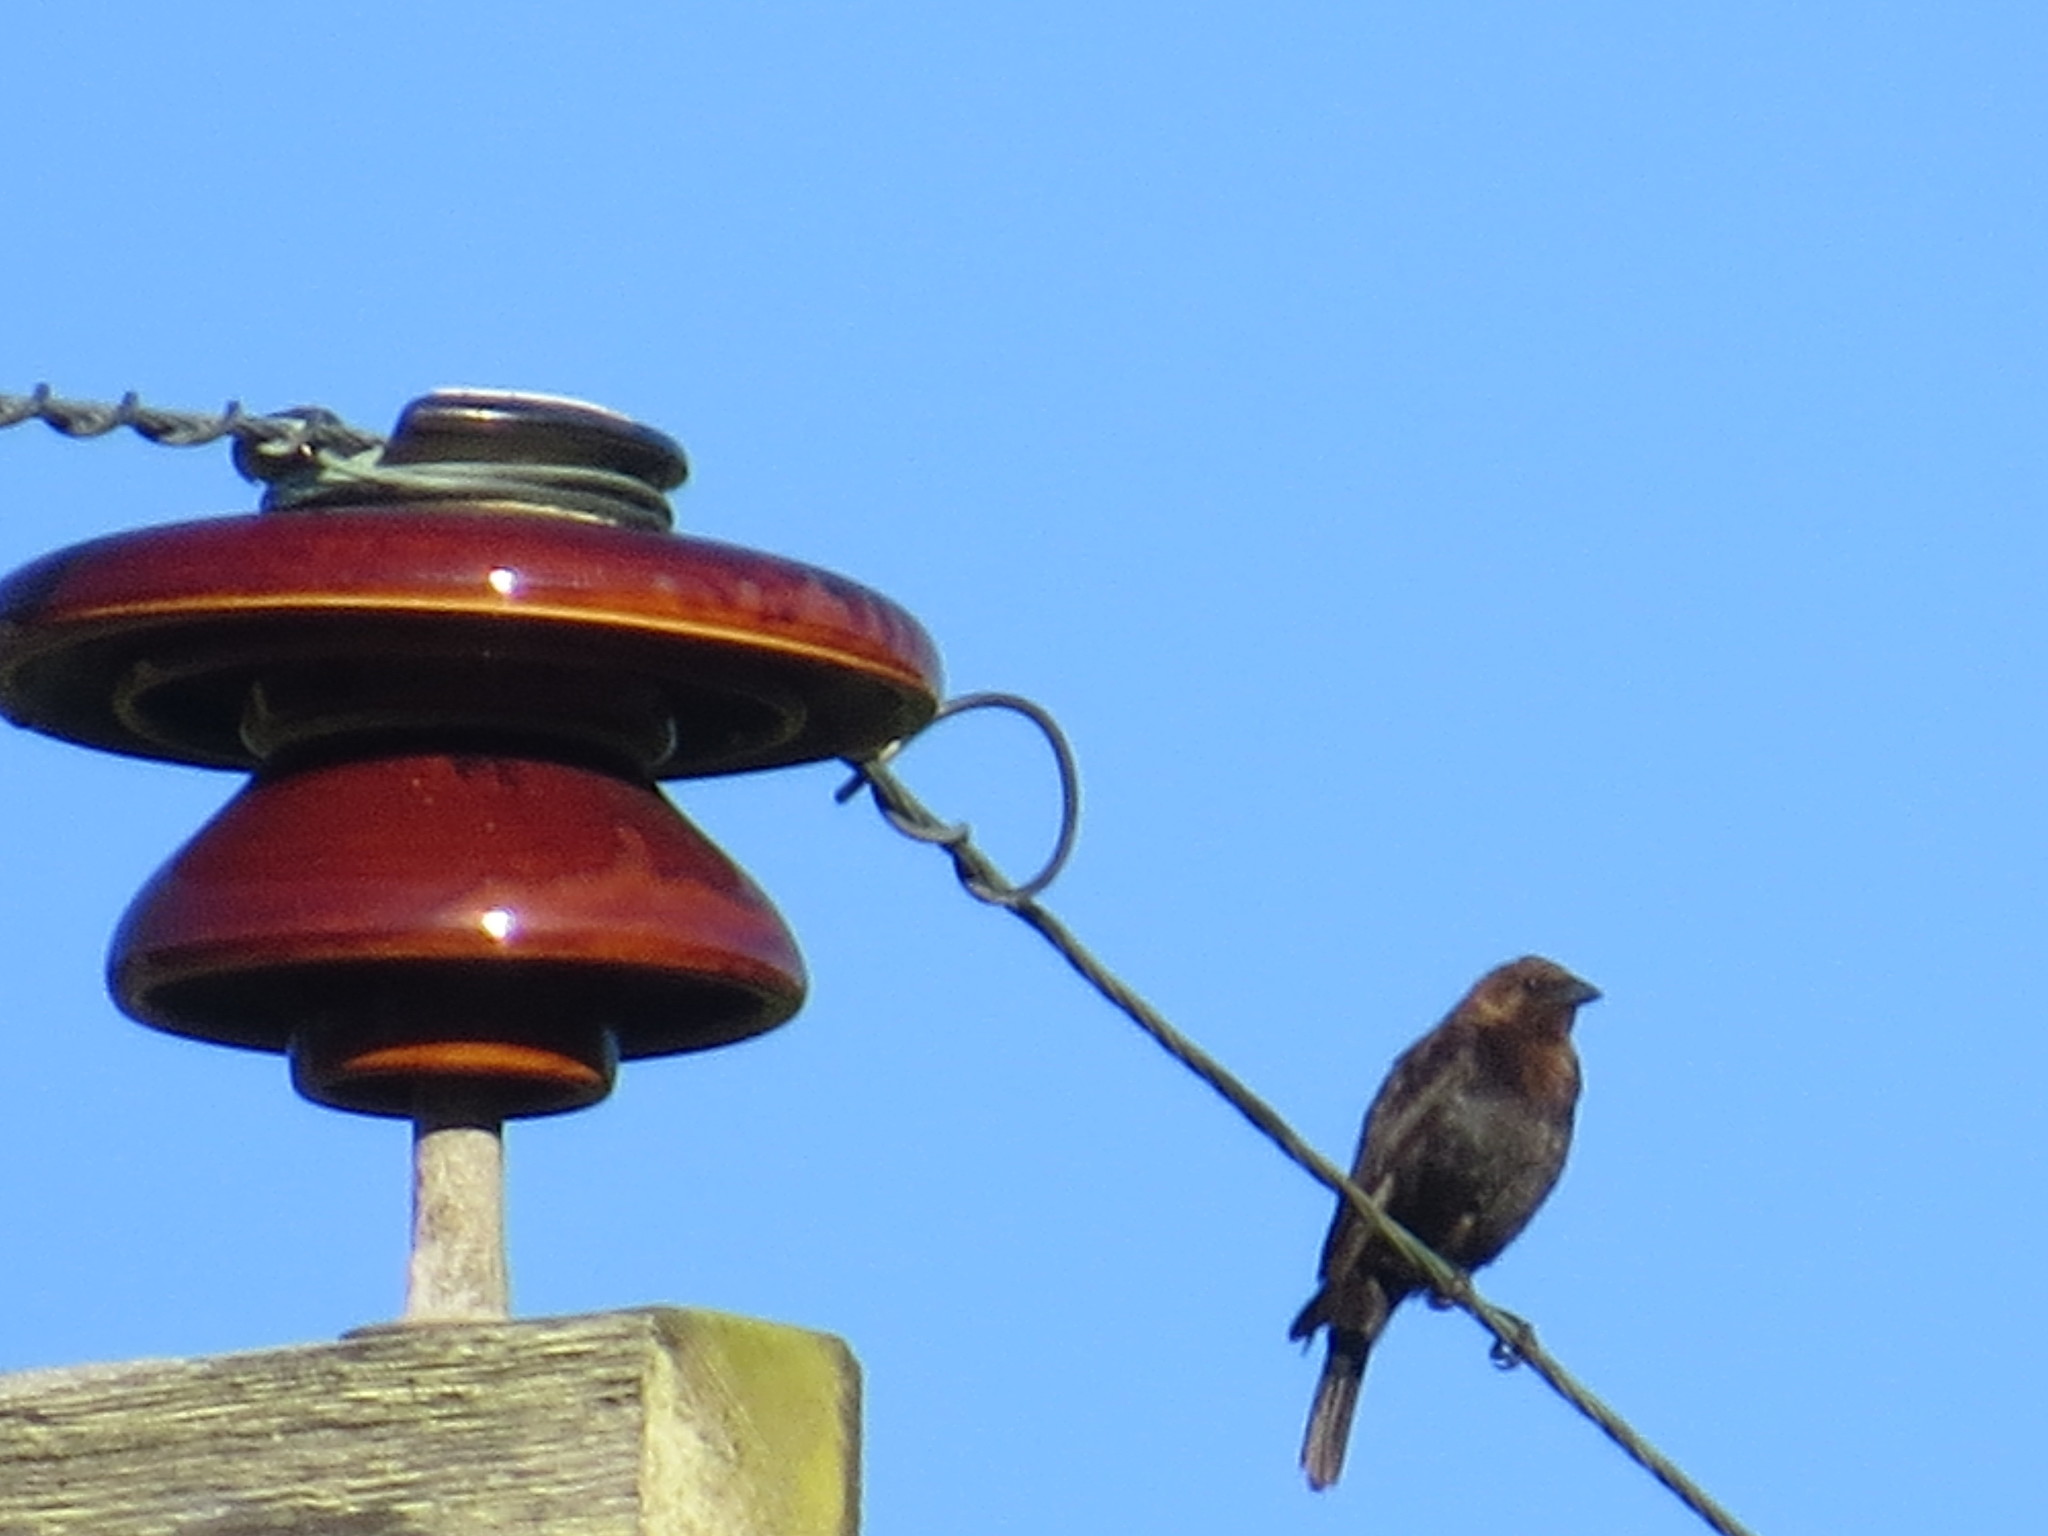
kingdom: Animalia
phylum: Chordata
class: Aves
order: Passeriformes
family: Icteridae
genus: Molothrus
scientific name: Molothrus ater
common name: Brown-headed cowbird
